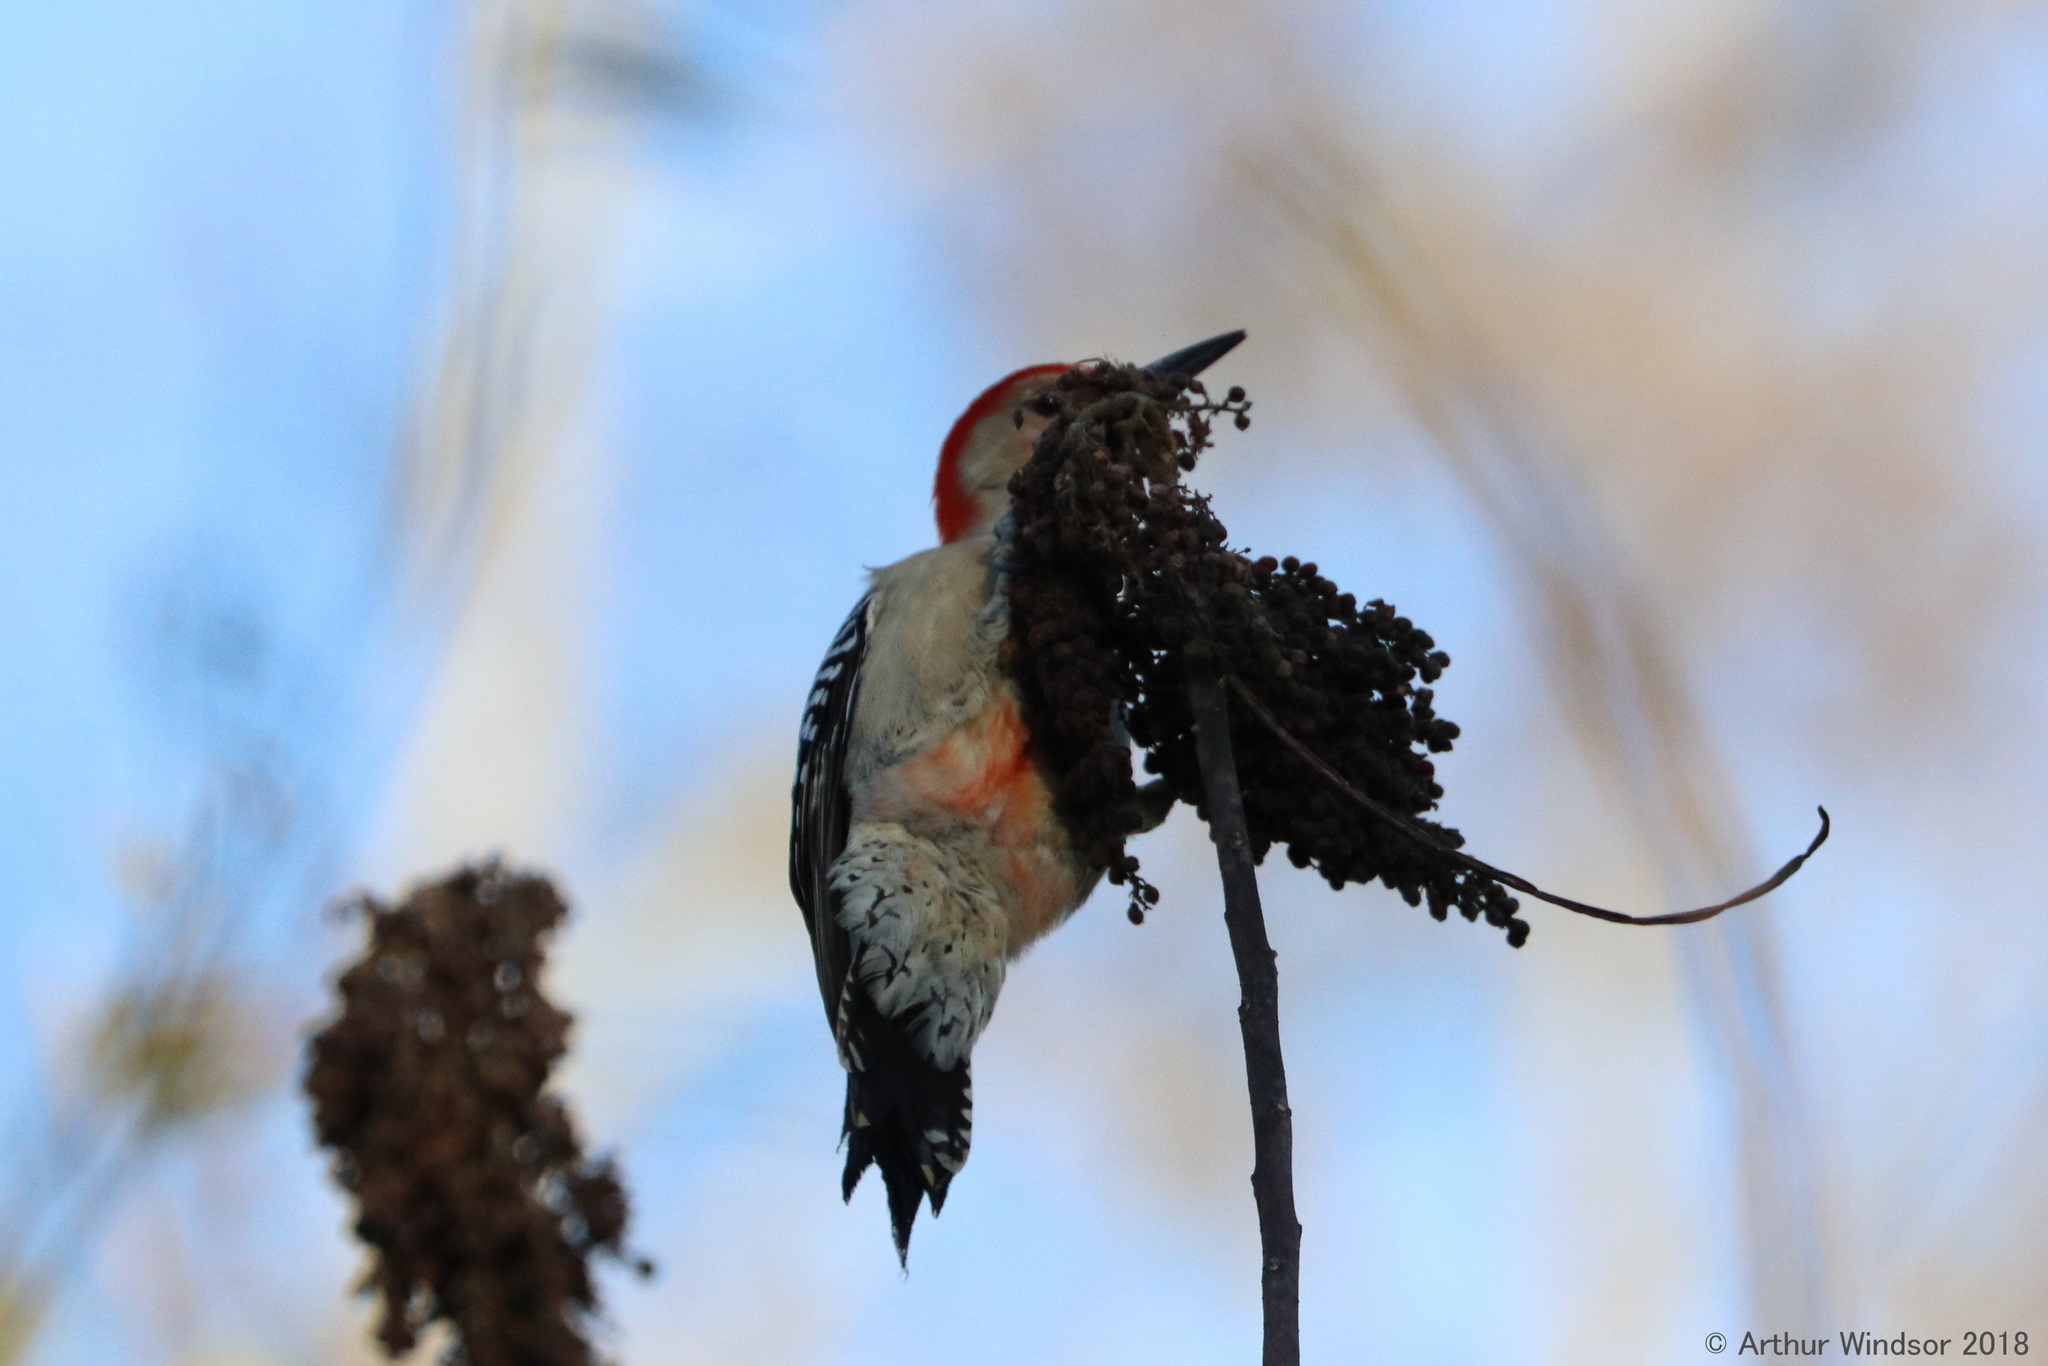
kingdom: Animalia
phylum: Chordata
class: Aves
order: Piciformes
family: Picidae
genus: Melanerpes
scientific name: Melanerpes carolinus
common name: Red-bellied woodpecker
